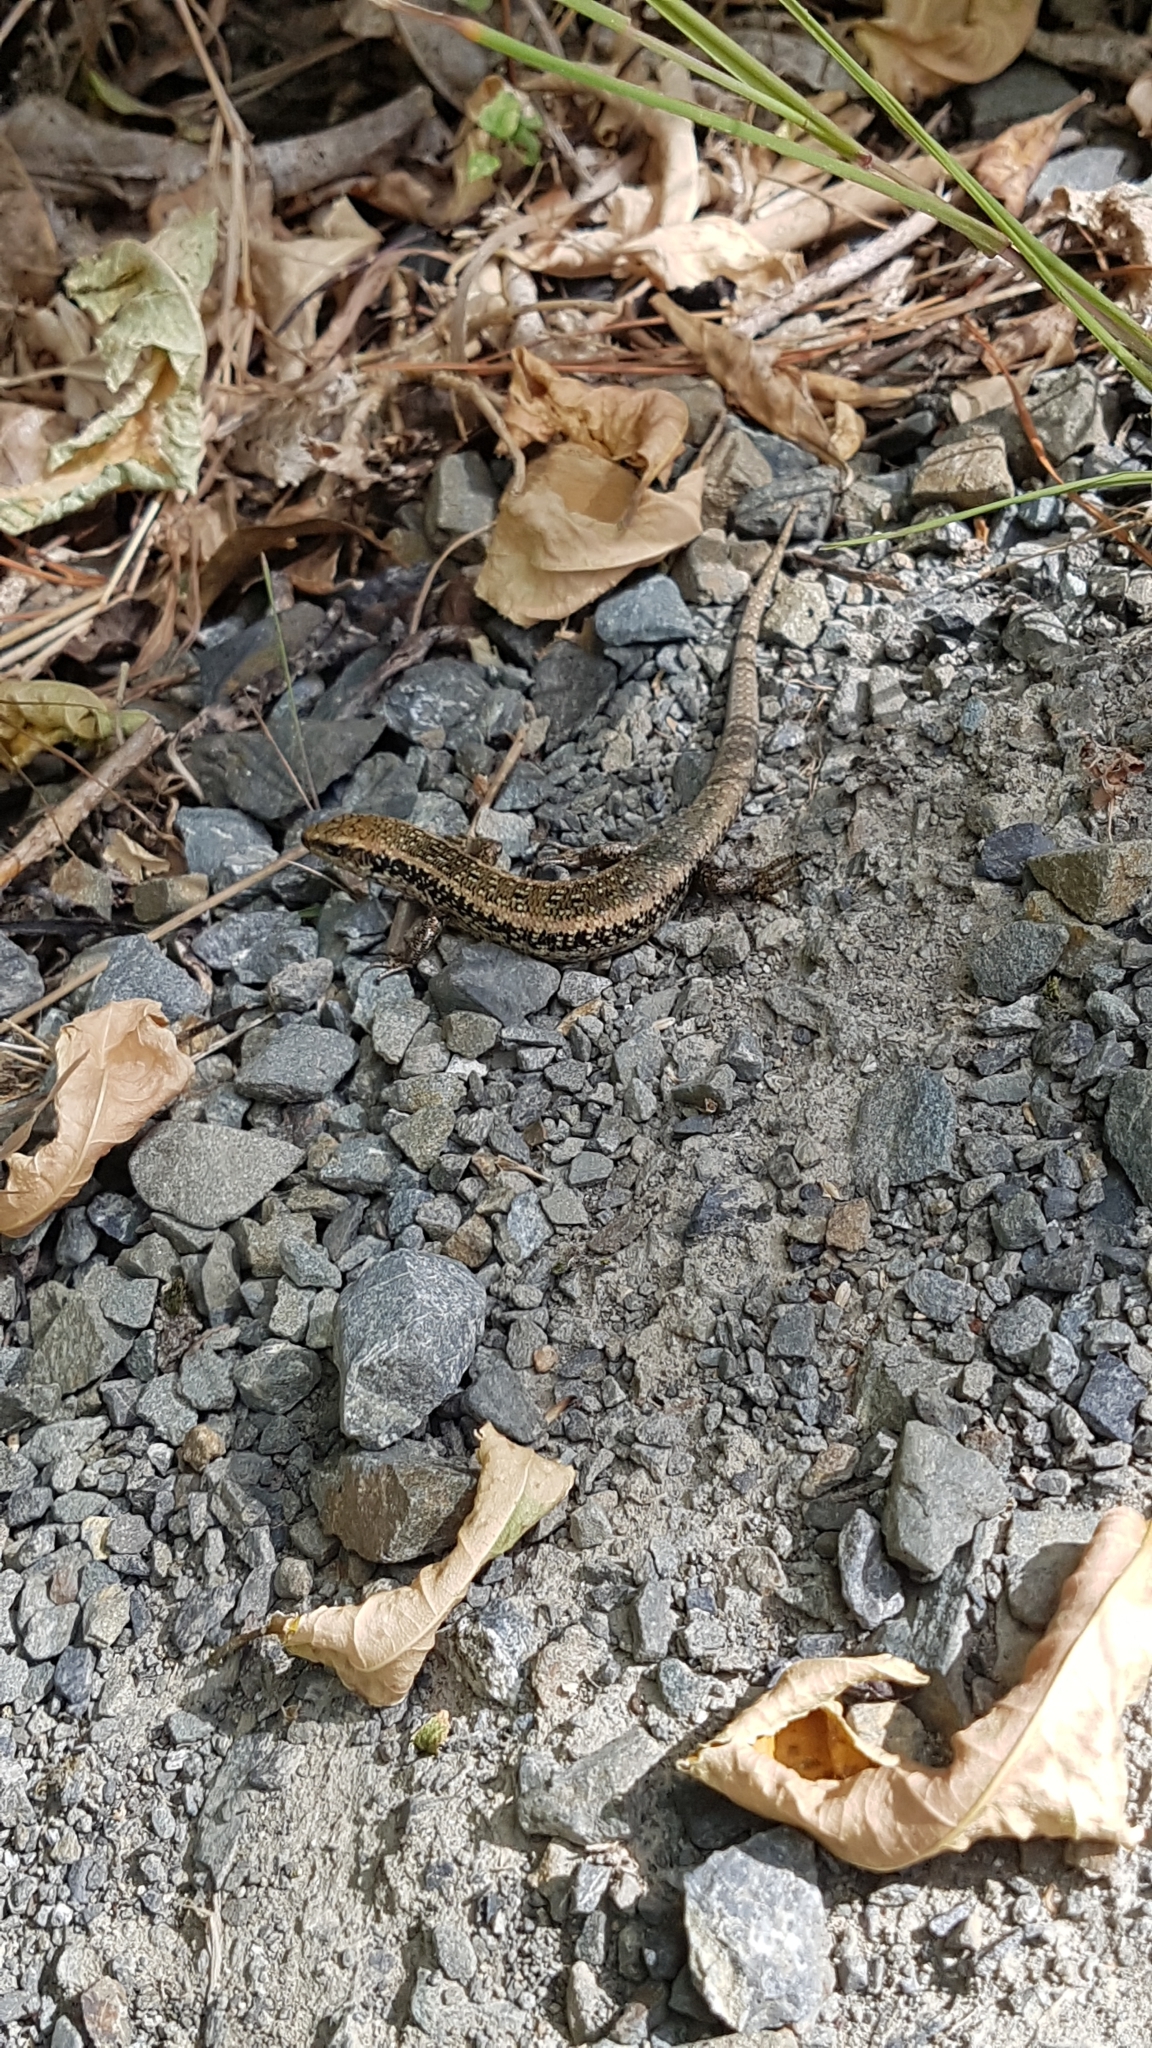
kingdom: Animalia
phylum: Chordata
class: Squamata
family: Scincidae
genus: Oligosoma
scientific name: Oligosoma kokowai
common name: Northern spotted skink
